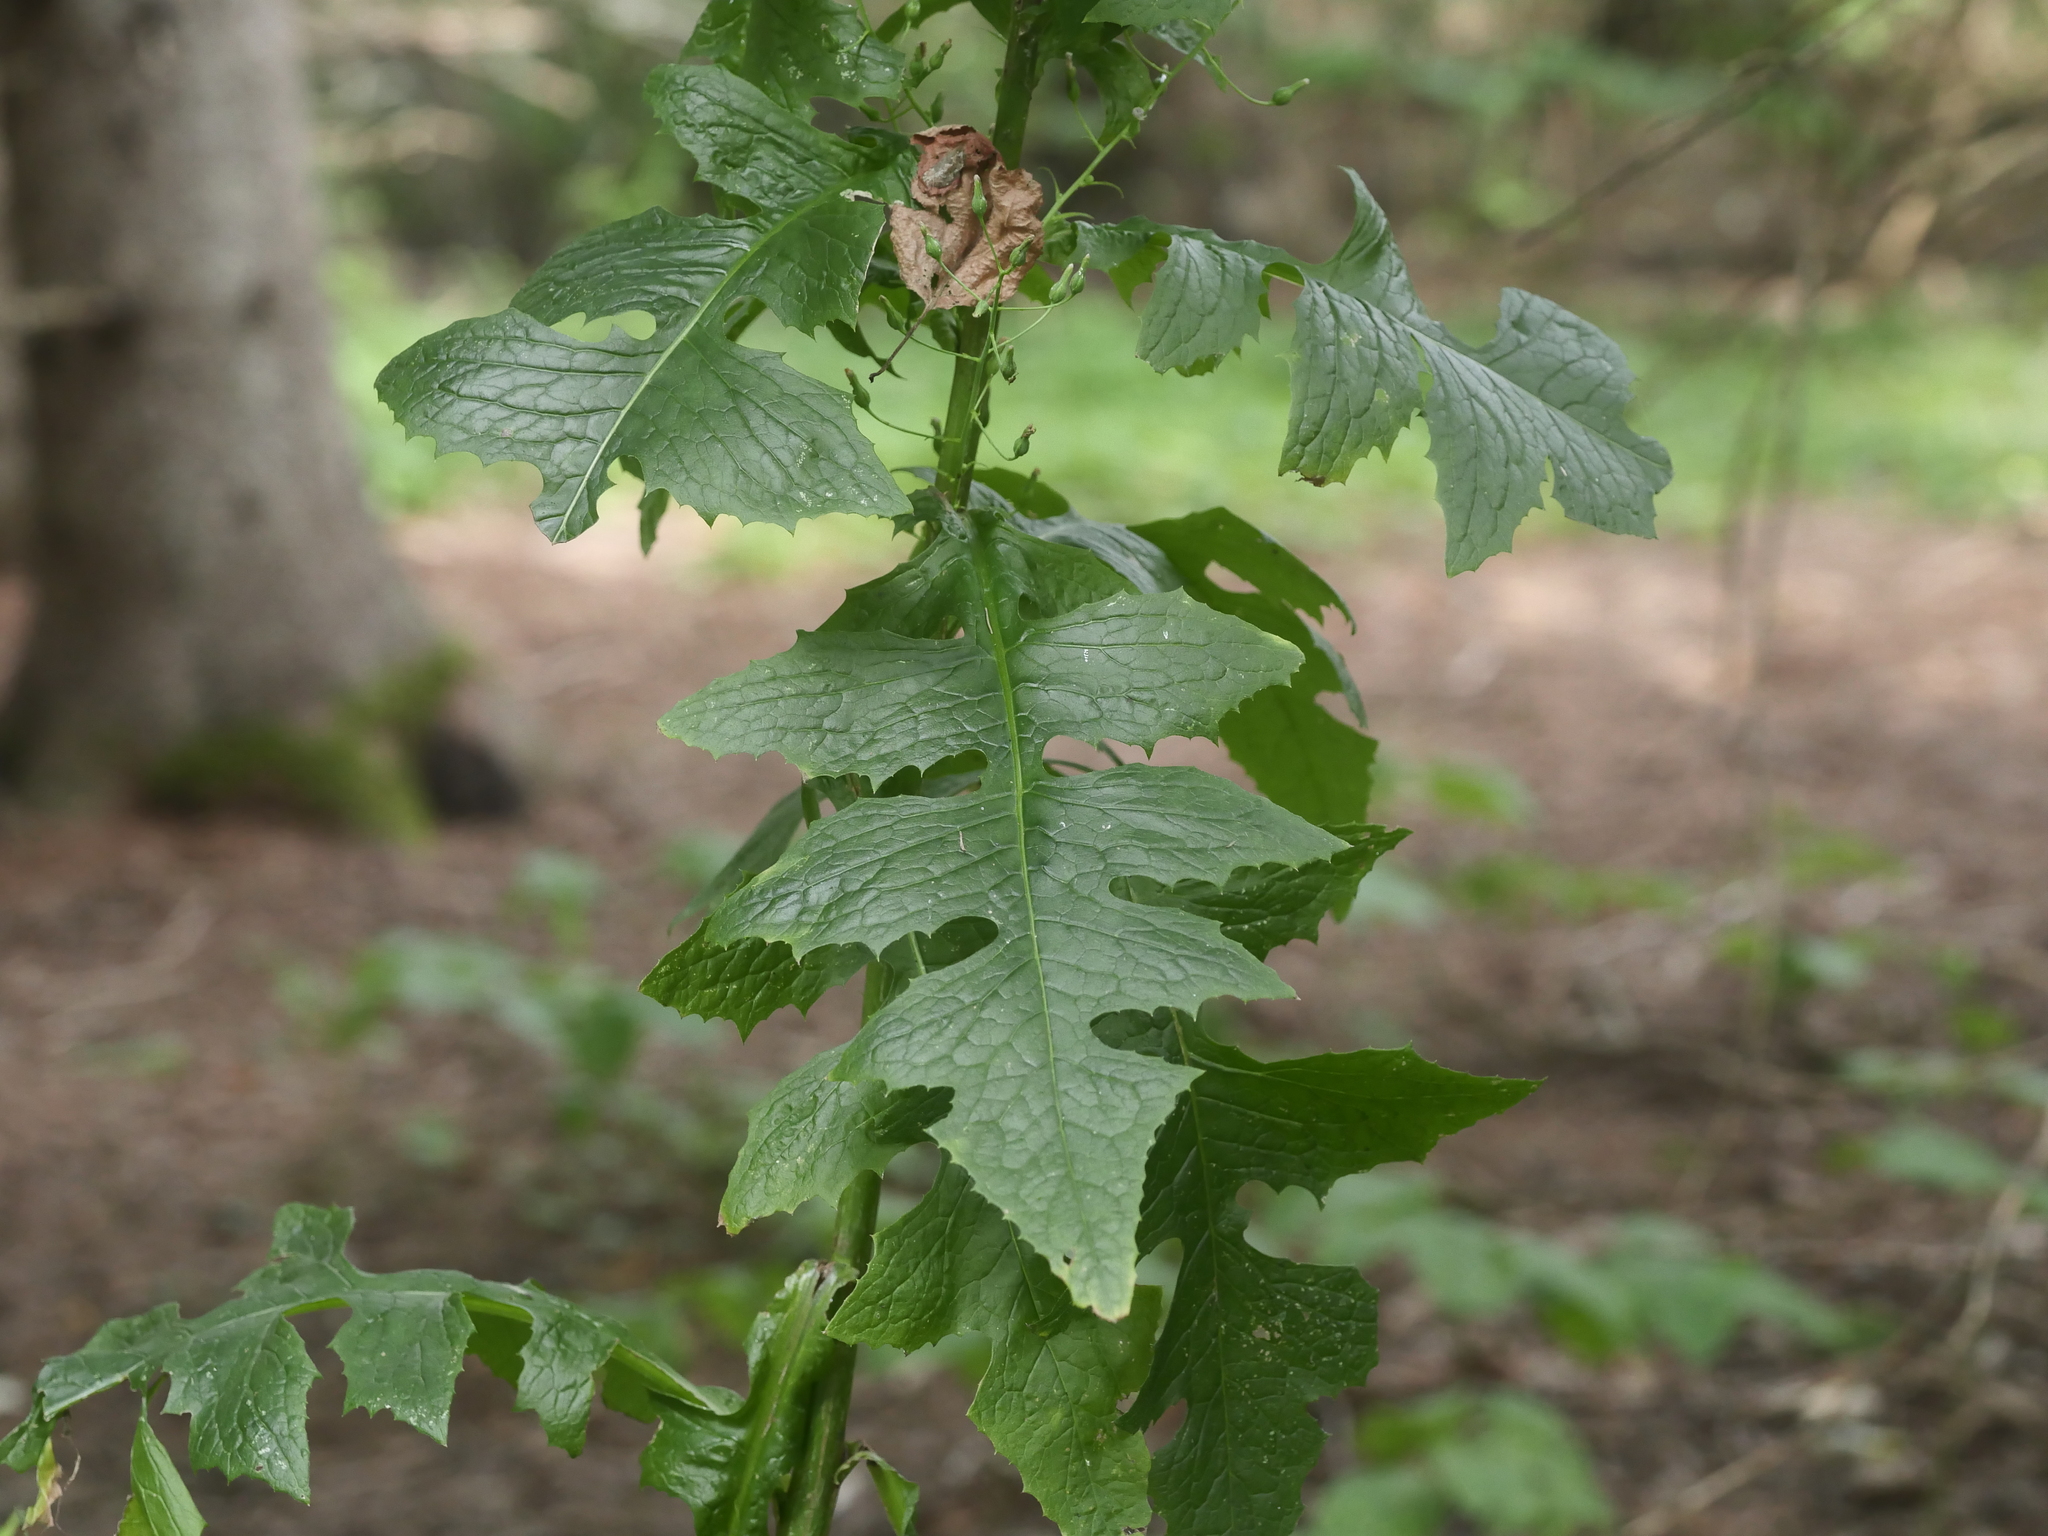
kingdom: Plantae
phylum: Tracheophyta
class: Magnoliopsida
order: Asterales
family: Asteraceae
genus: Lactuca
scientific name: Lactuca biennis
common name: Blue wood lettuce
